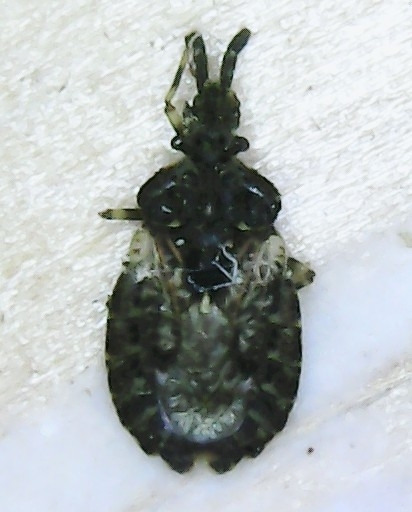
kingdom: Animalia
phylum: Arthropoda
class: Insecta
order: Hemiptera
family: Aradidae
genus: Aradus
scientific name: Aradus fuscomaculatus
